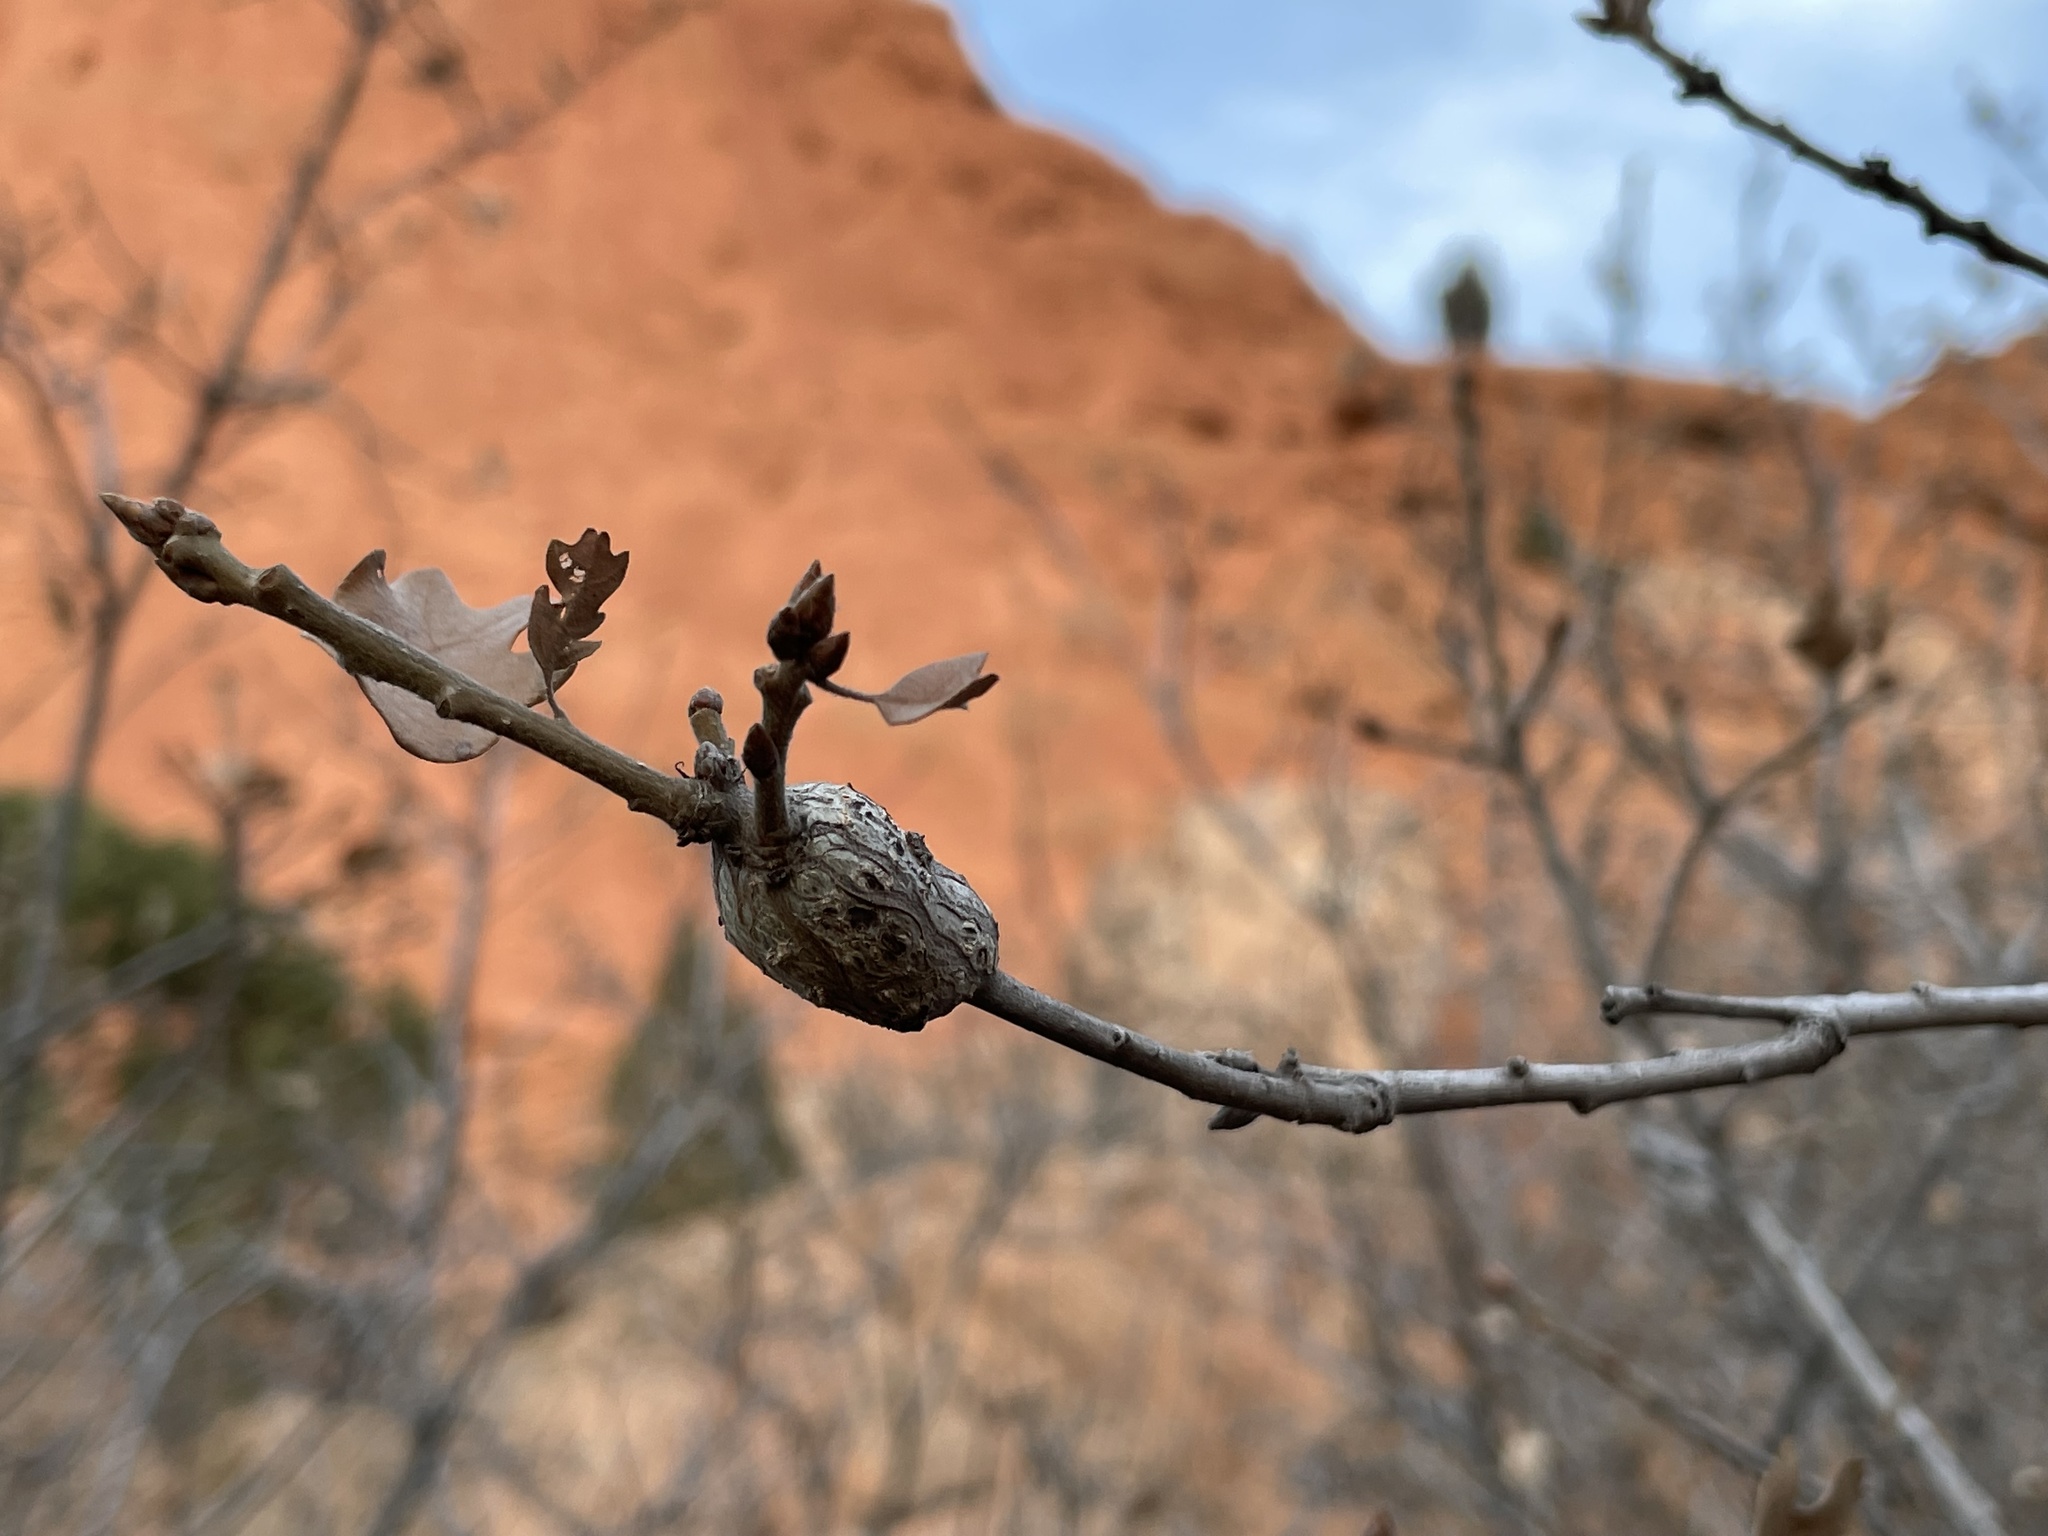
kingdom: Animalia
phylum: Arthropoda
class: Insecta
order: Hymenoptera
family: Cynipidae
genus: Callirhytis
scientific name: Callirhytis
